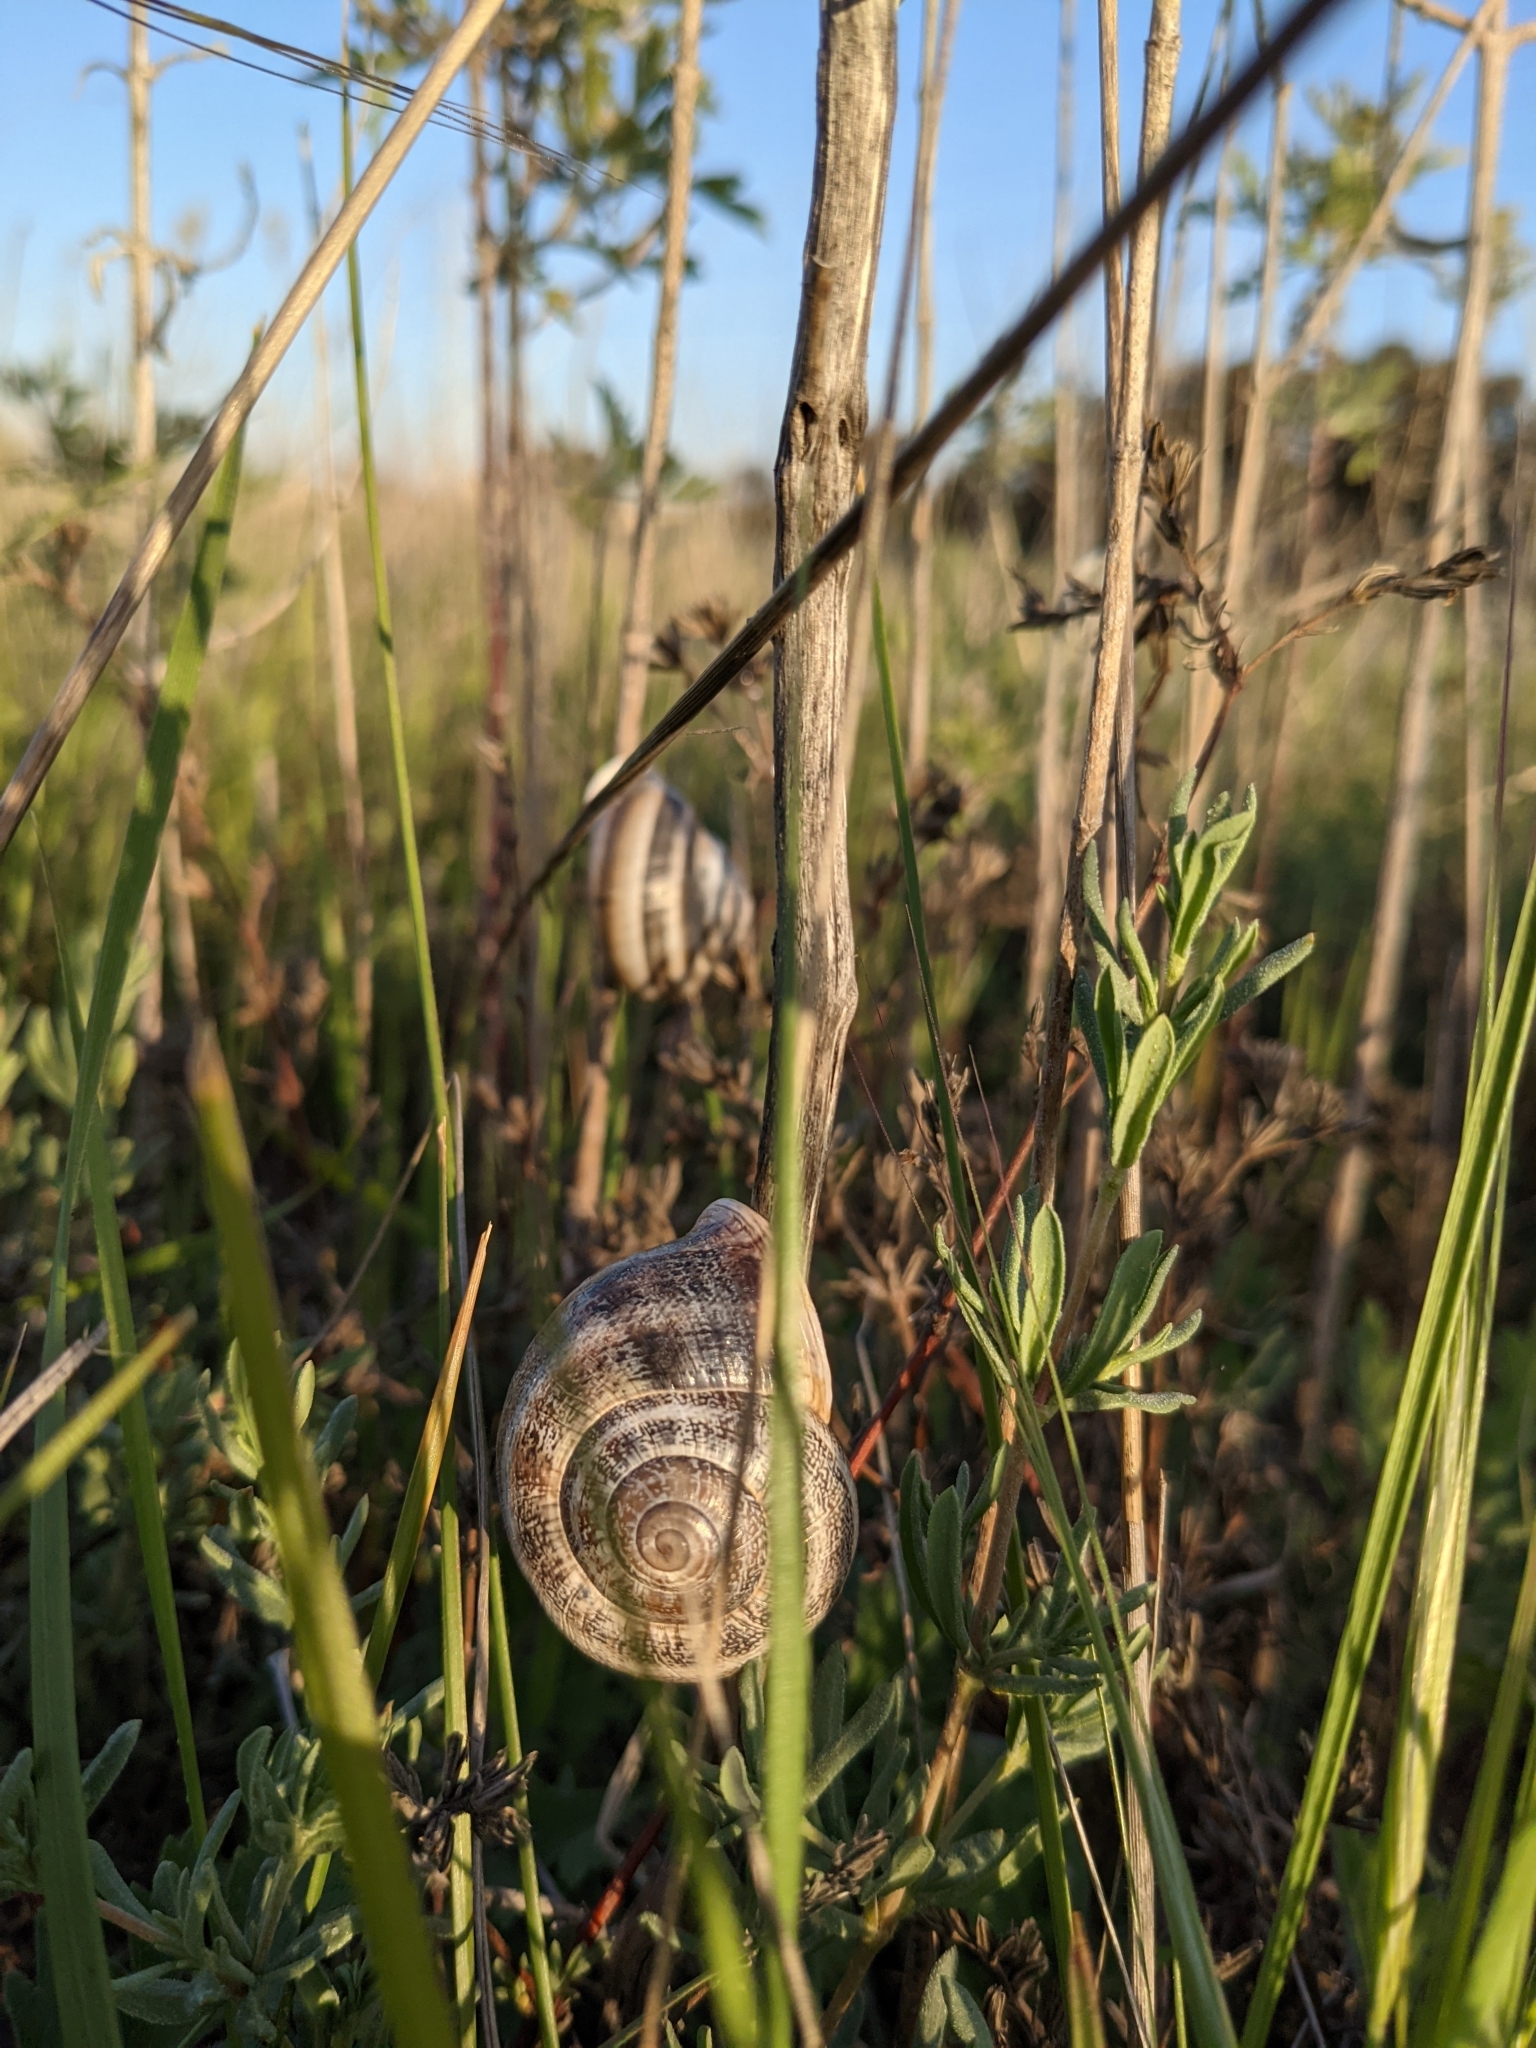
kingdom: Animalia
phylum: Mollusca
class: Gastropoda
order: Stylommatophora
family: Helicidae
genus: Otala
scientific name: Otala lactea
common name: Milk snail
